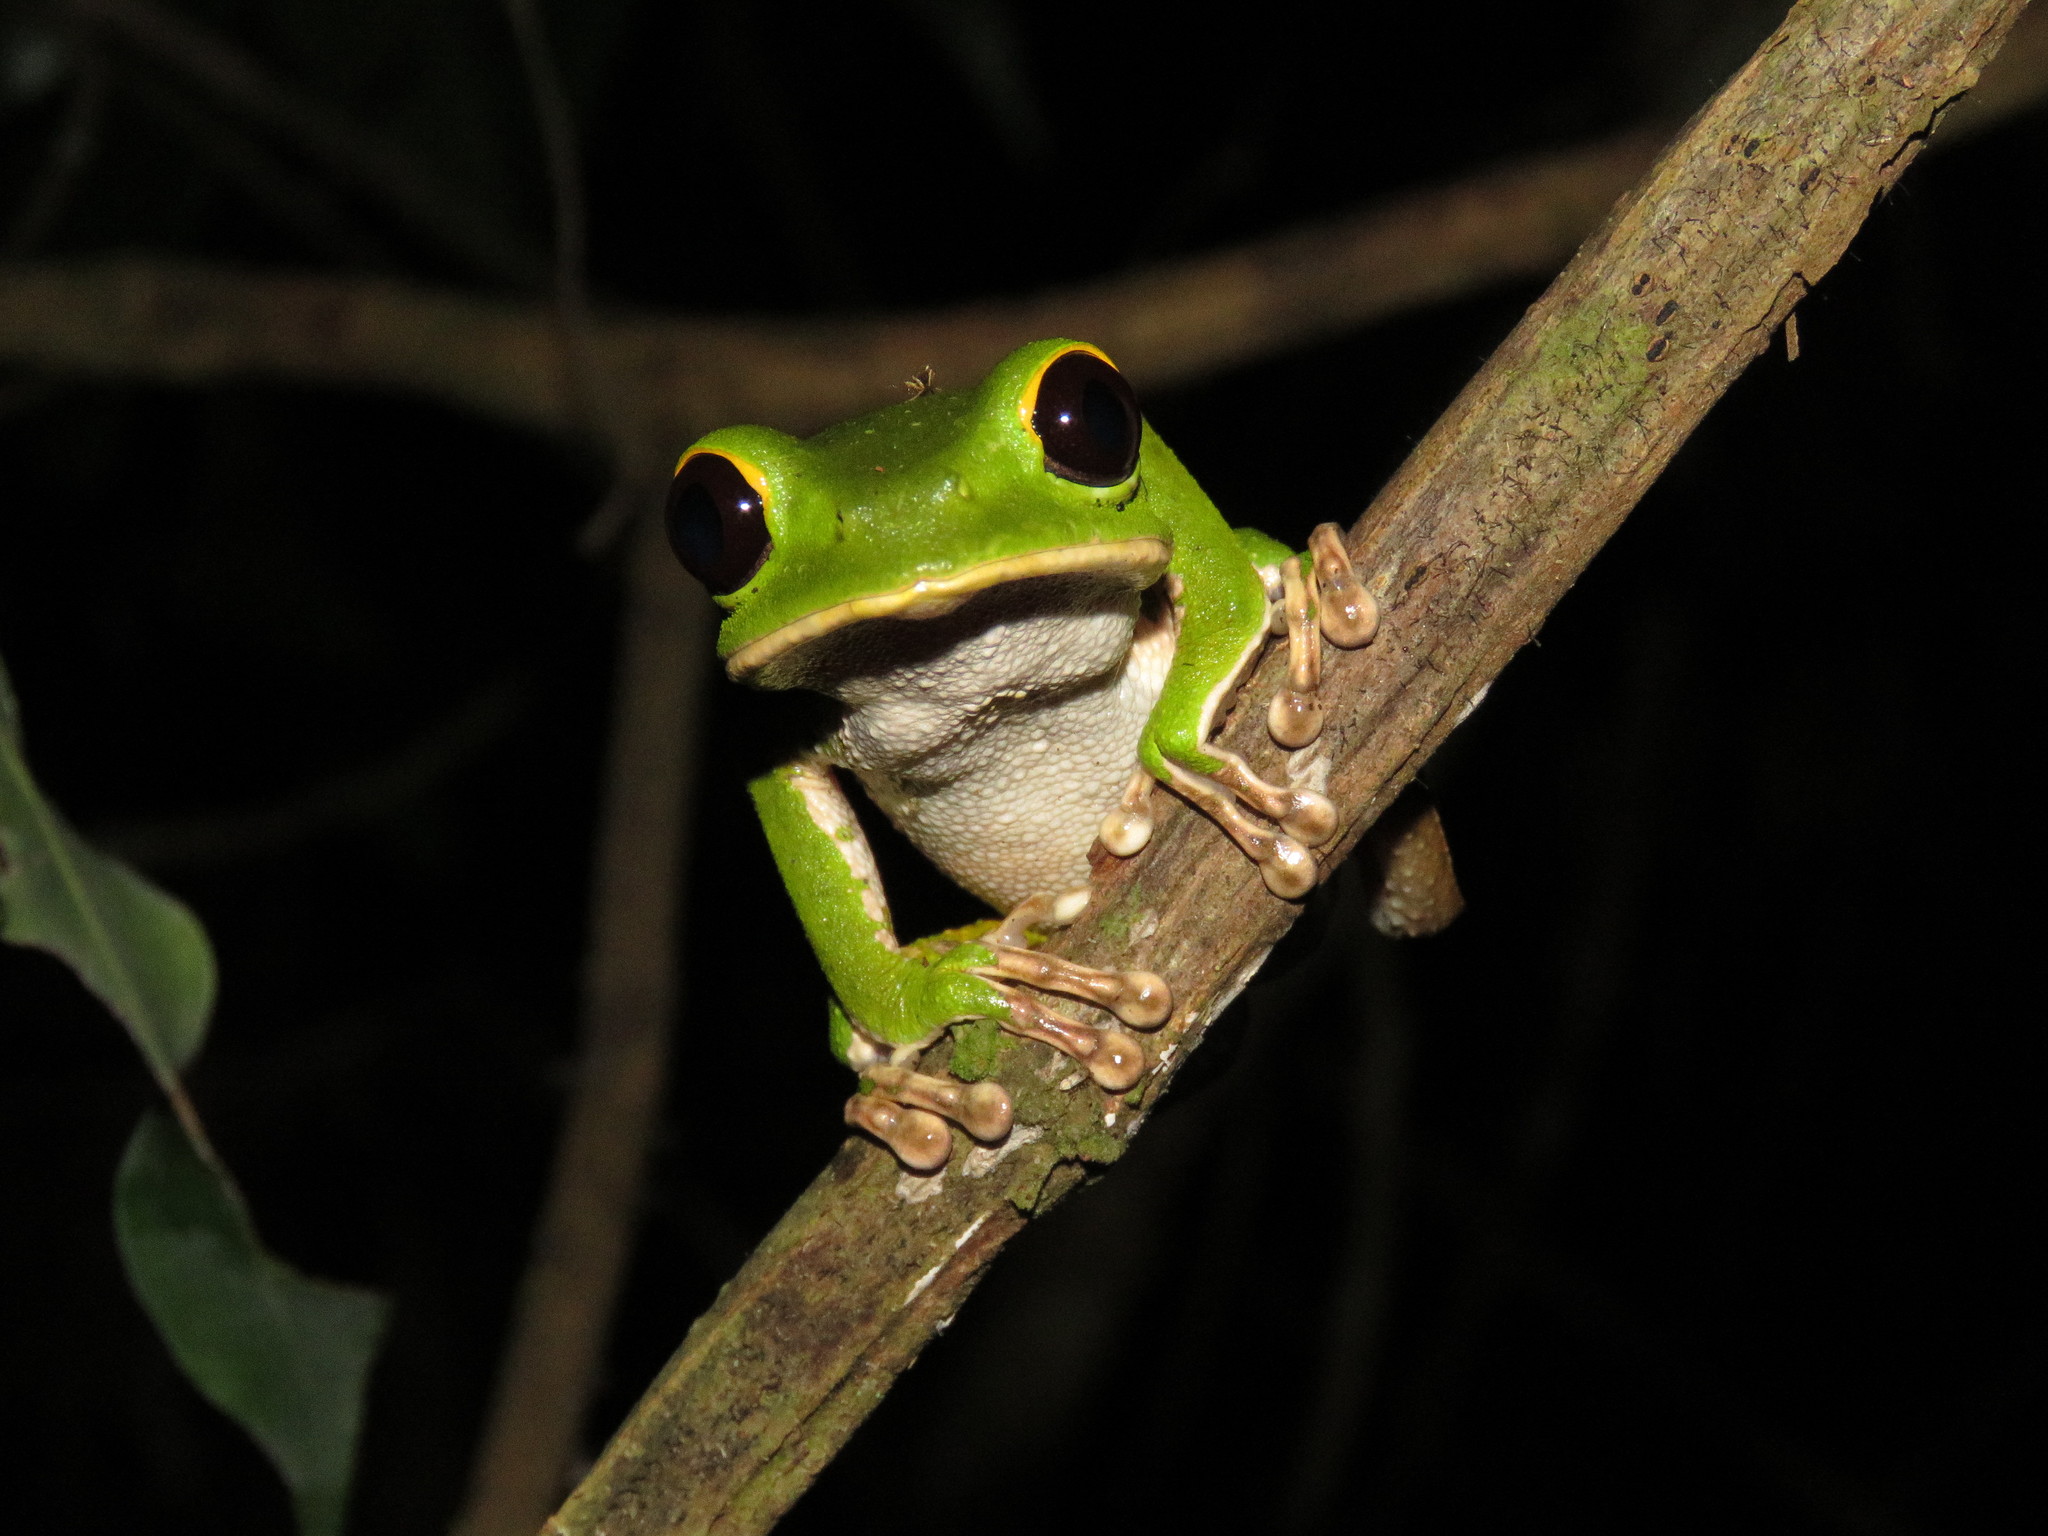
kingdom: Animalia
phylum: Chordata
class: Amphibia
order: Anura
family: Phyllomedusidae
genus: Phyllomedusa
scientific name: Phyllomedusa camba
